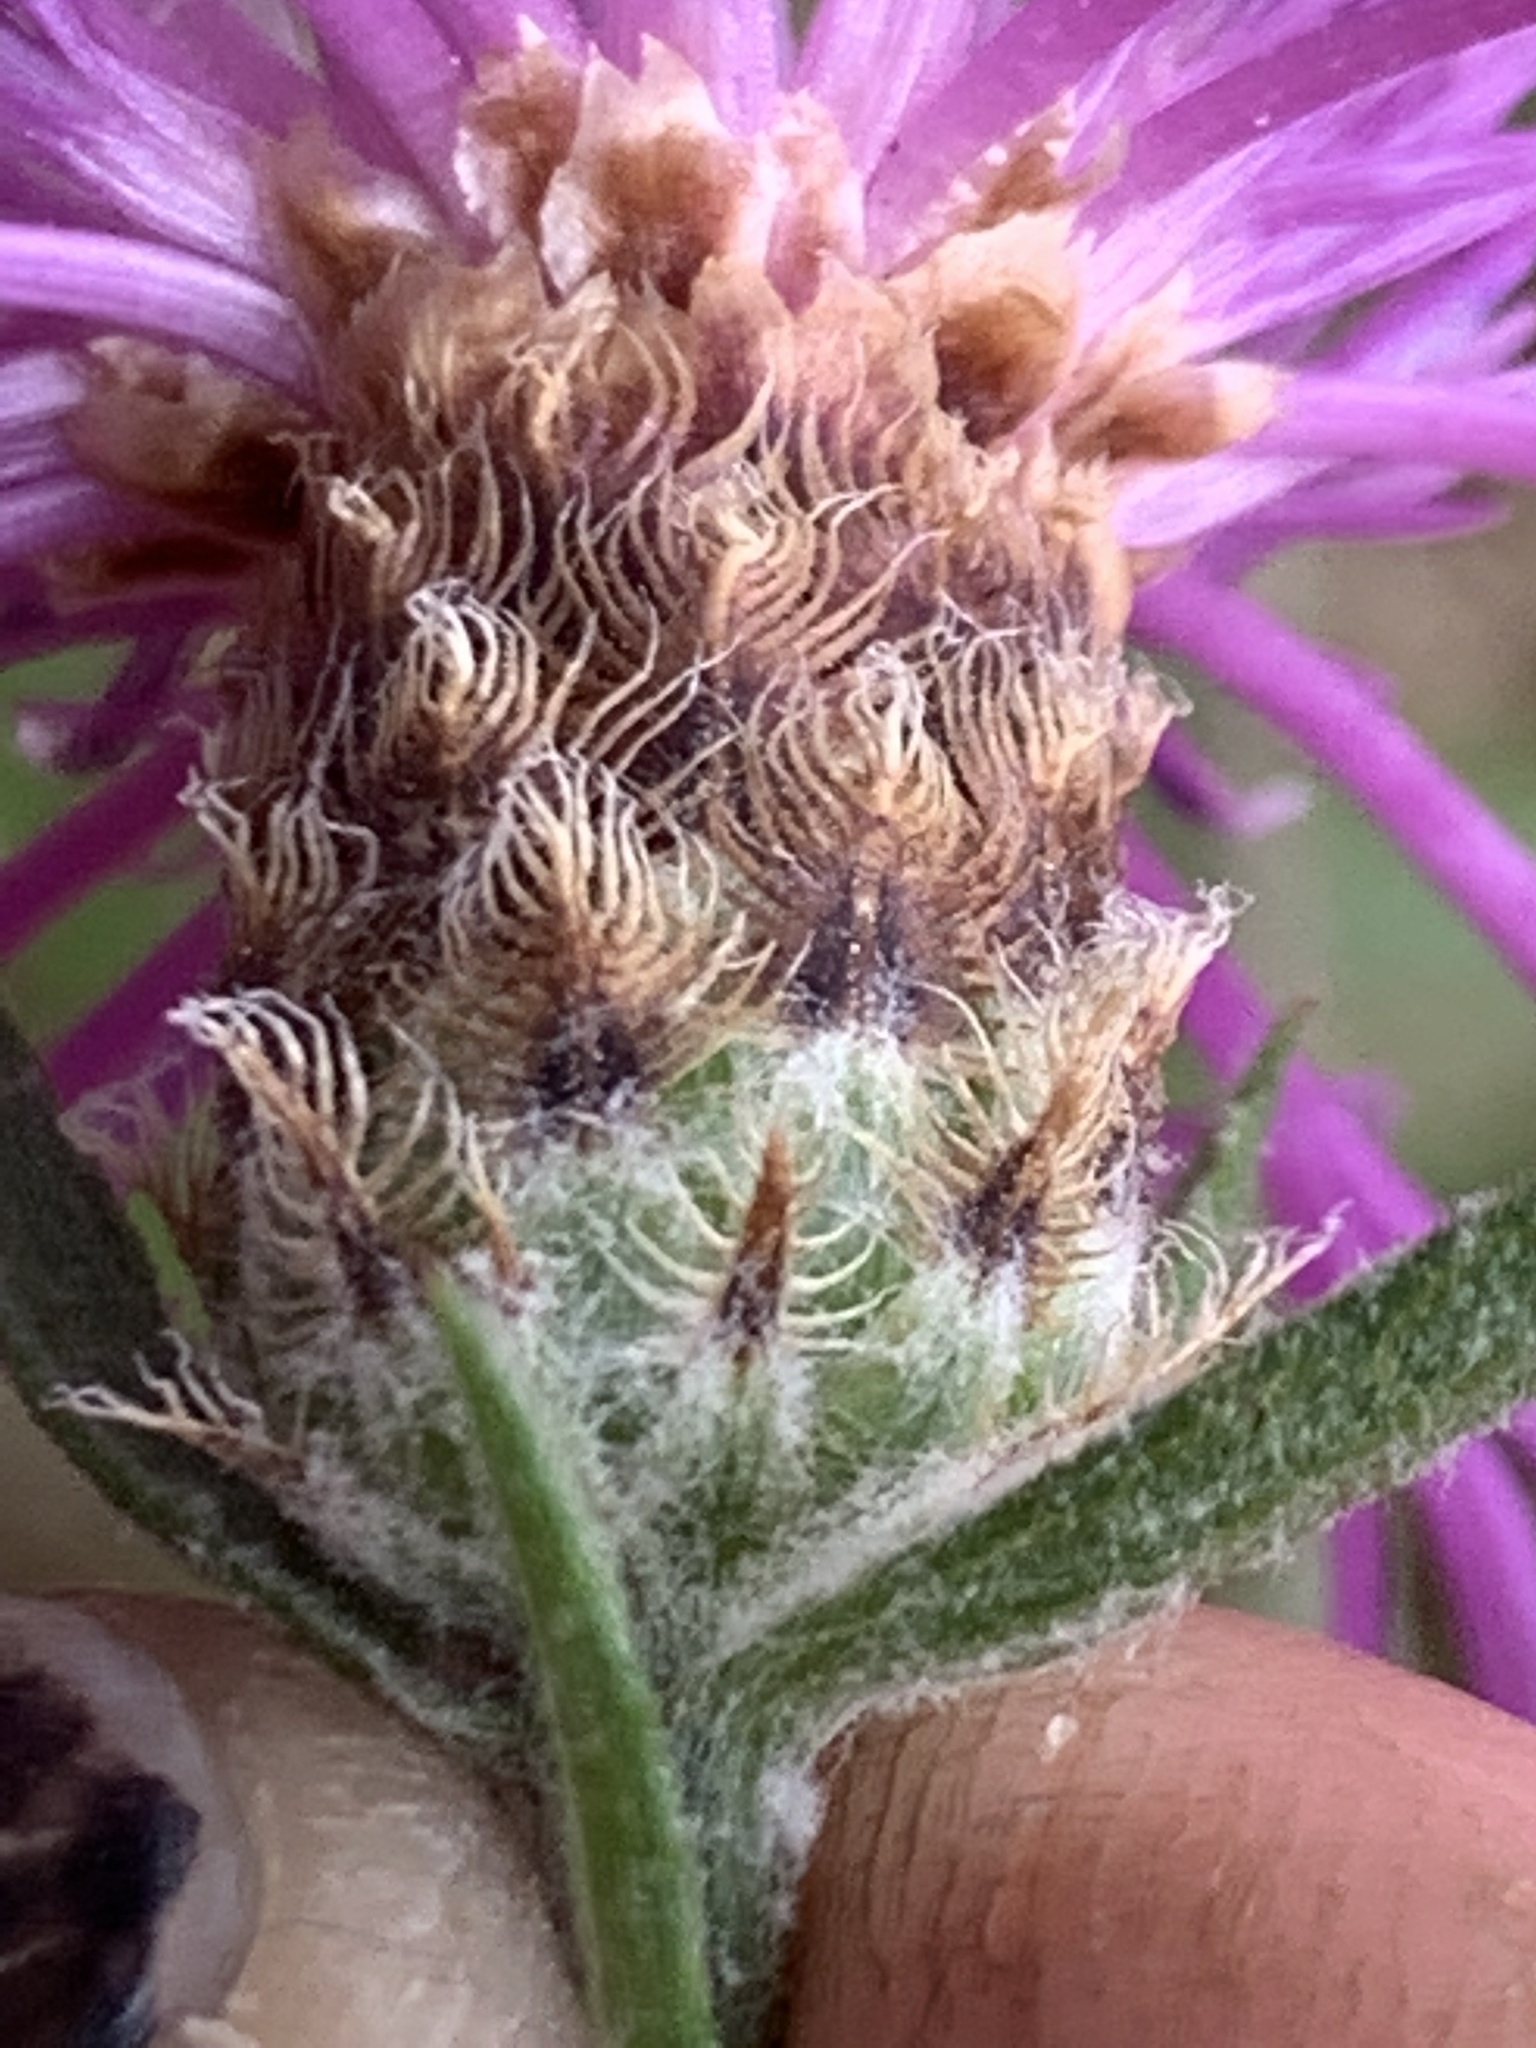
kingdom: Plantae
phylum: Tracheophyta
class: Magnoliopsida
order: Asterales
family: Asteraceae
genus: Centaurea
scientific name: Centaurea moncktonii
